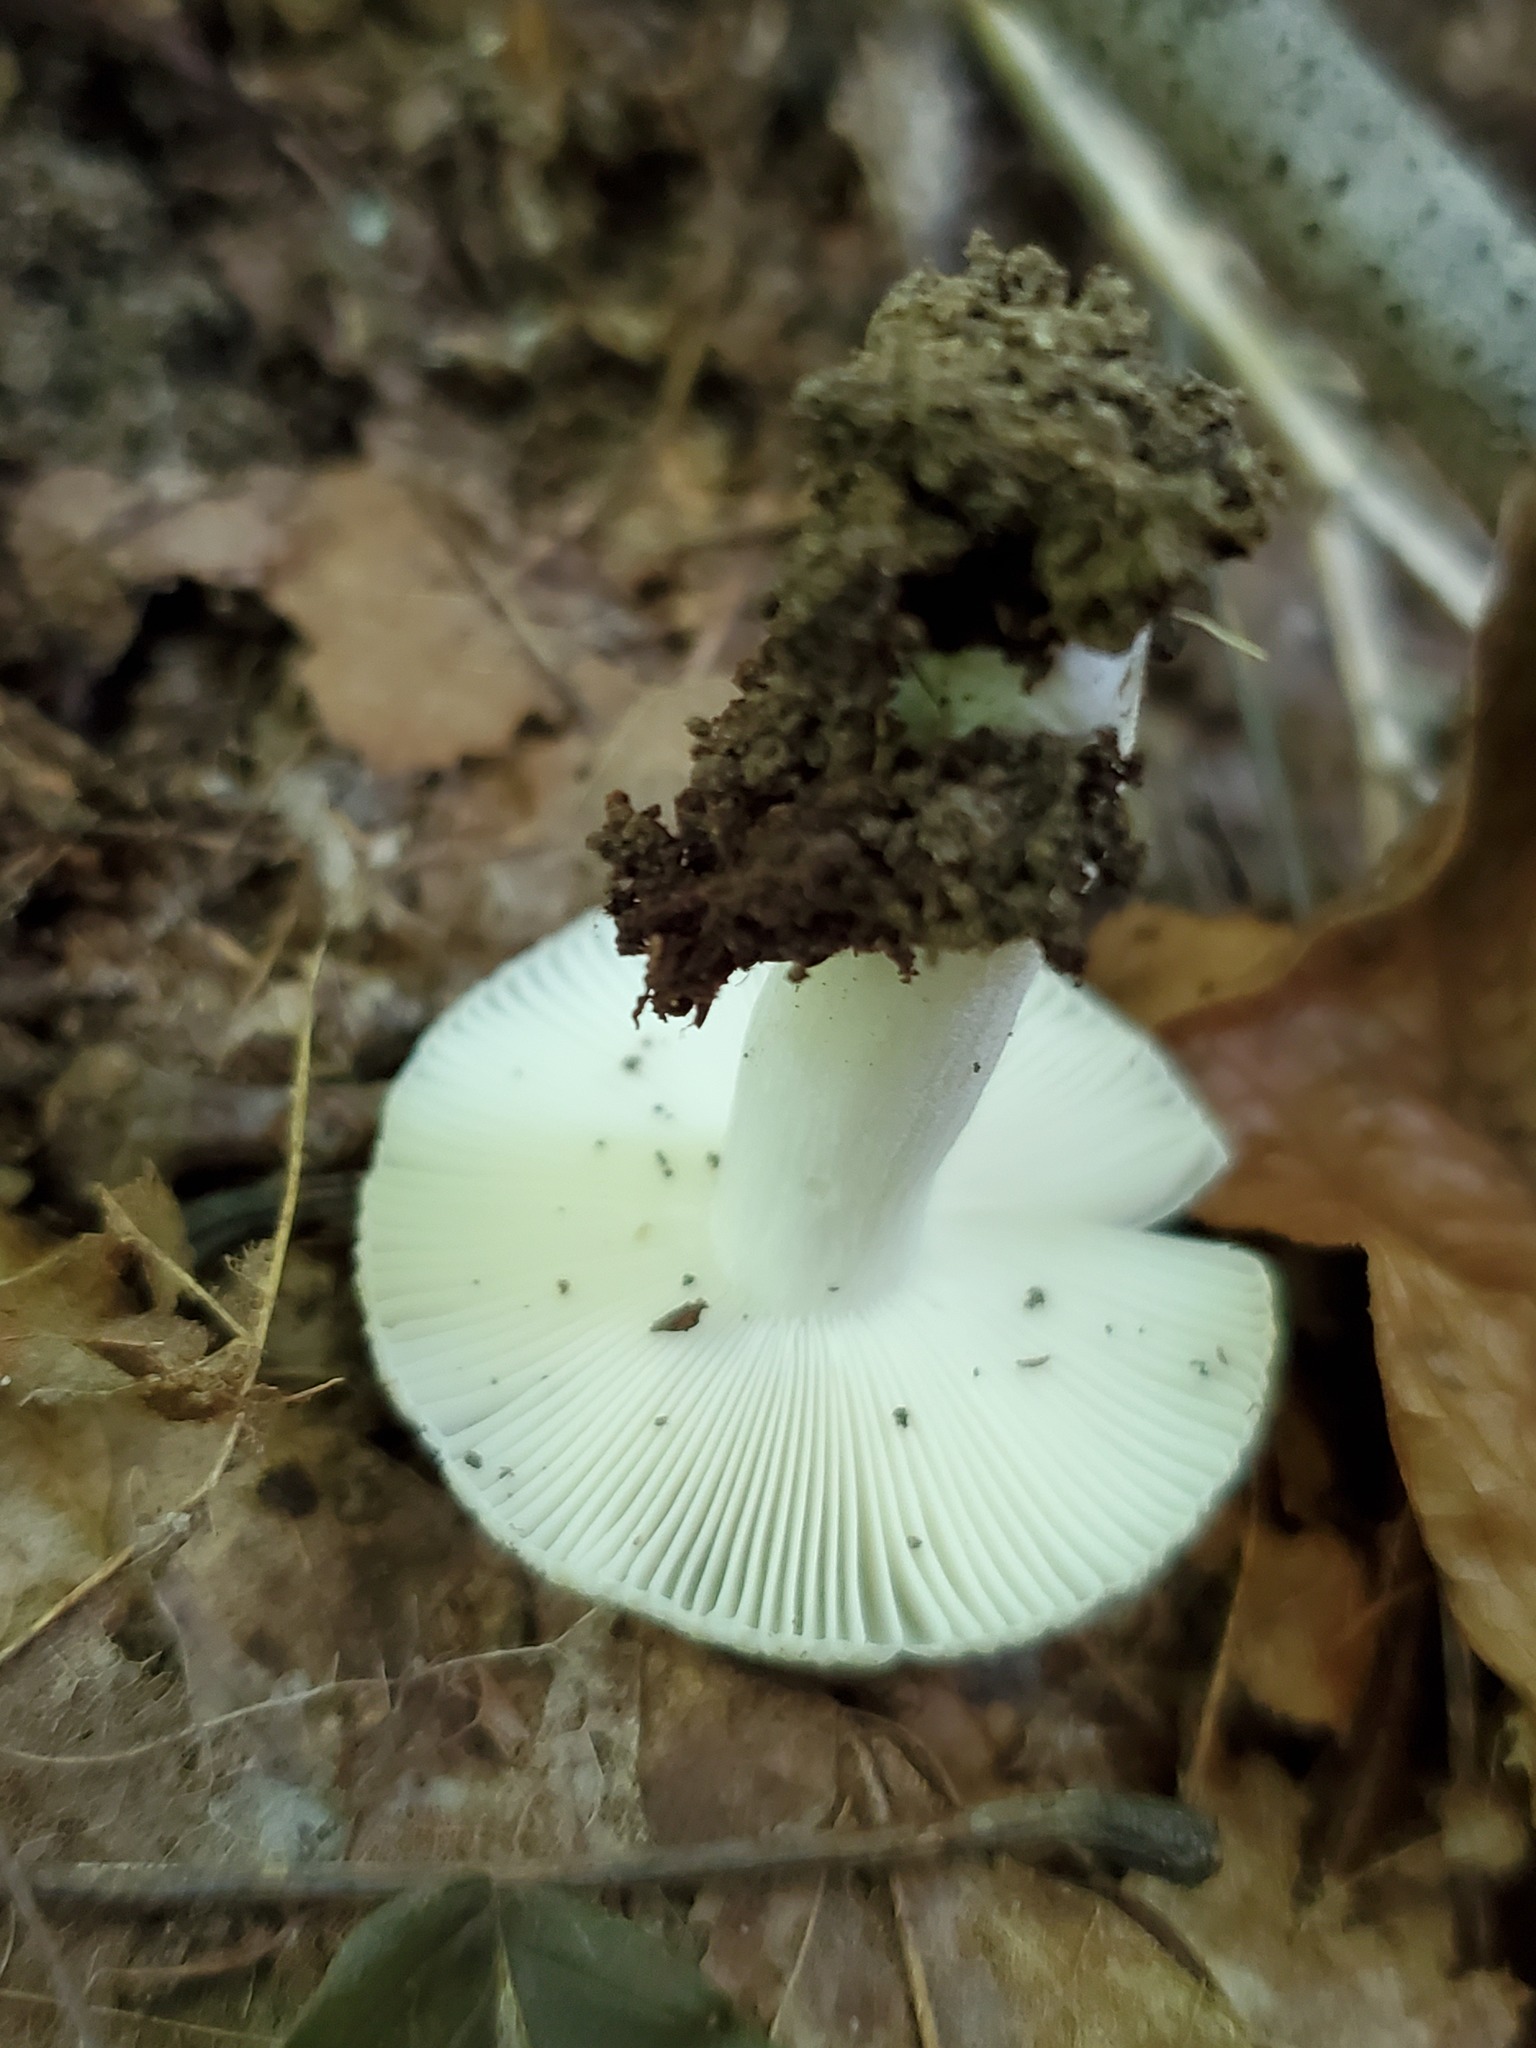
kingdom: Fungi
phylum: Basidiomycota
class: Agaricomycetes
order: Russulales
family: Russulaceae
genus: Russula
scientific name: Russula crustosa
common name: Green quilt russula
